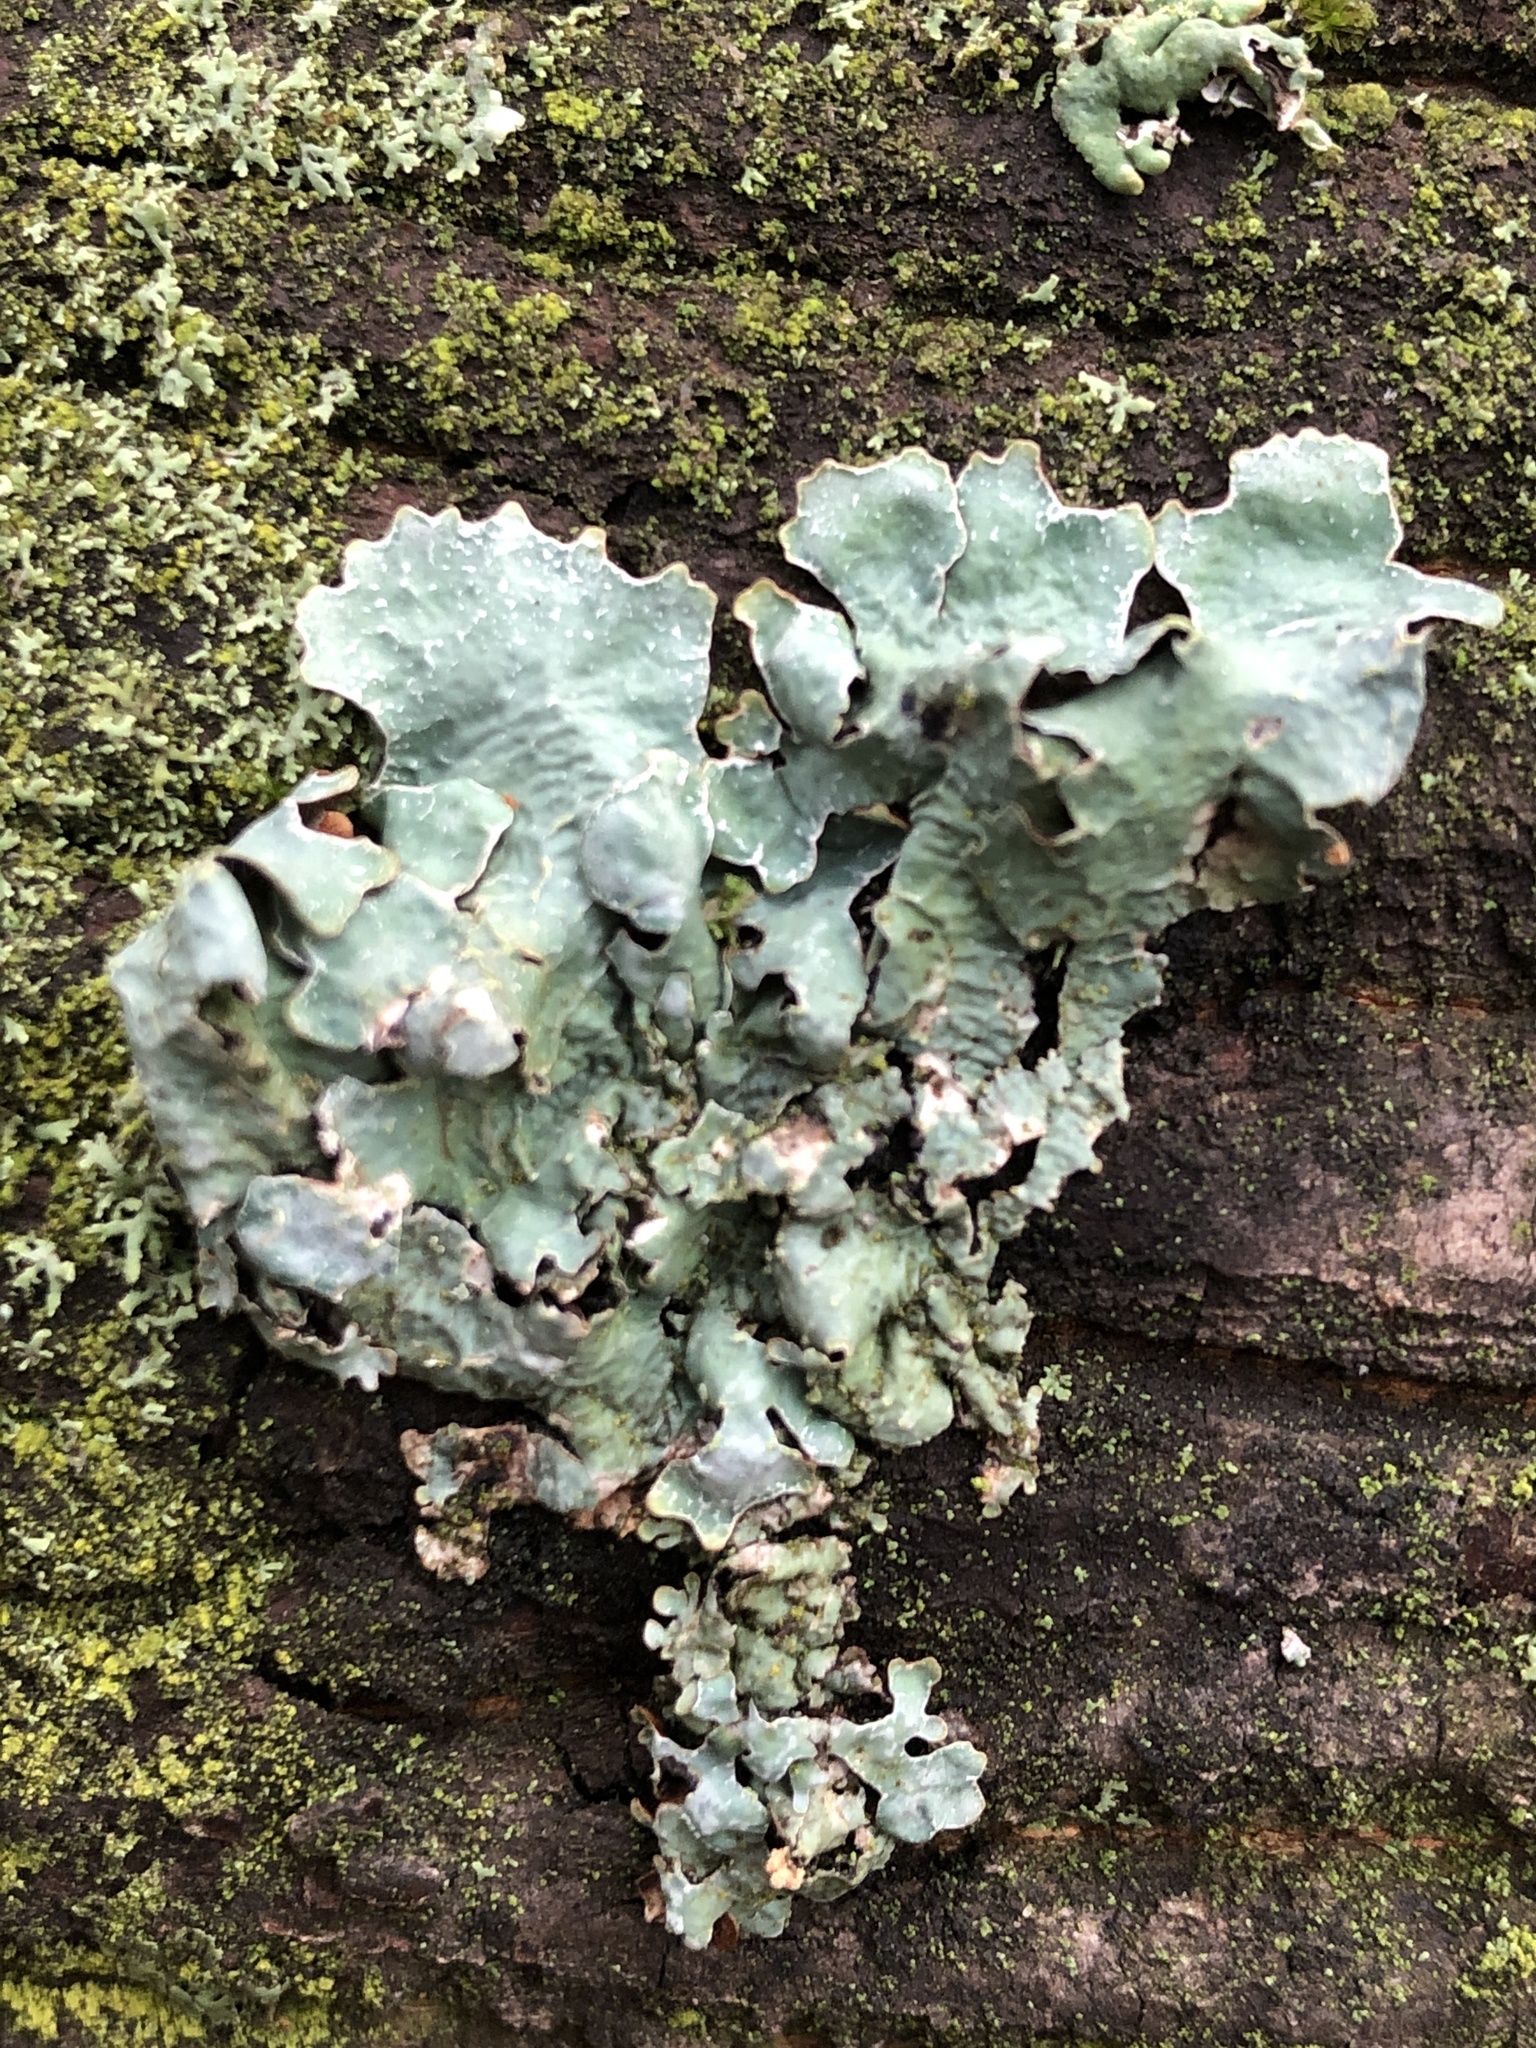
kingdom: Fungi
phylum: Ascomycota
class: Lecanoromycetes
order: Lecanorales
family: Parmeliaceae
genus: Parmelia
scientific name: Parmelia sulcata
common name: Netted shield lichen
